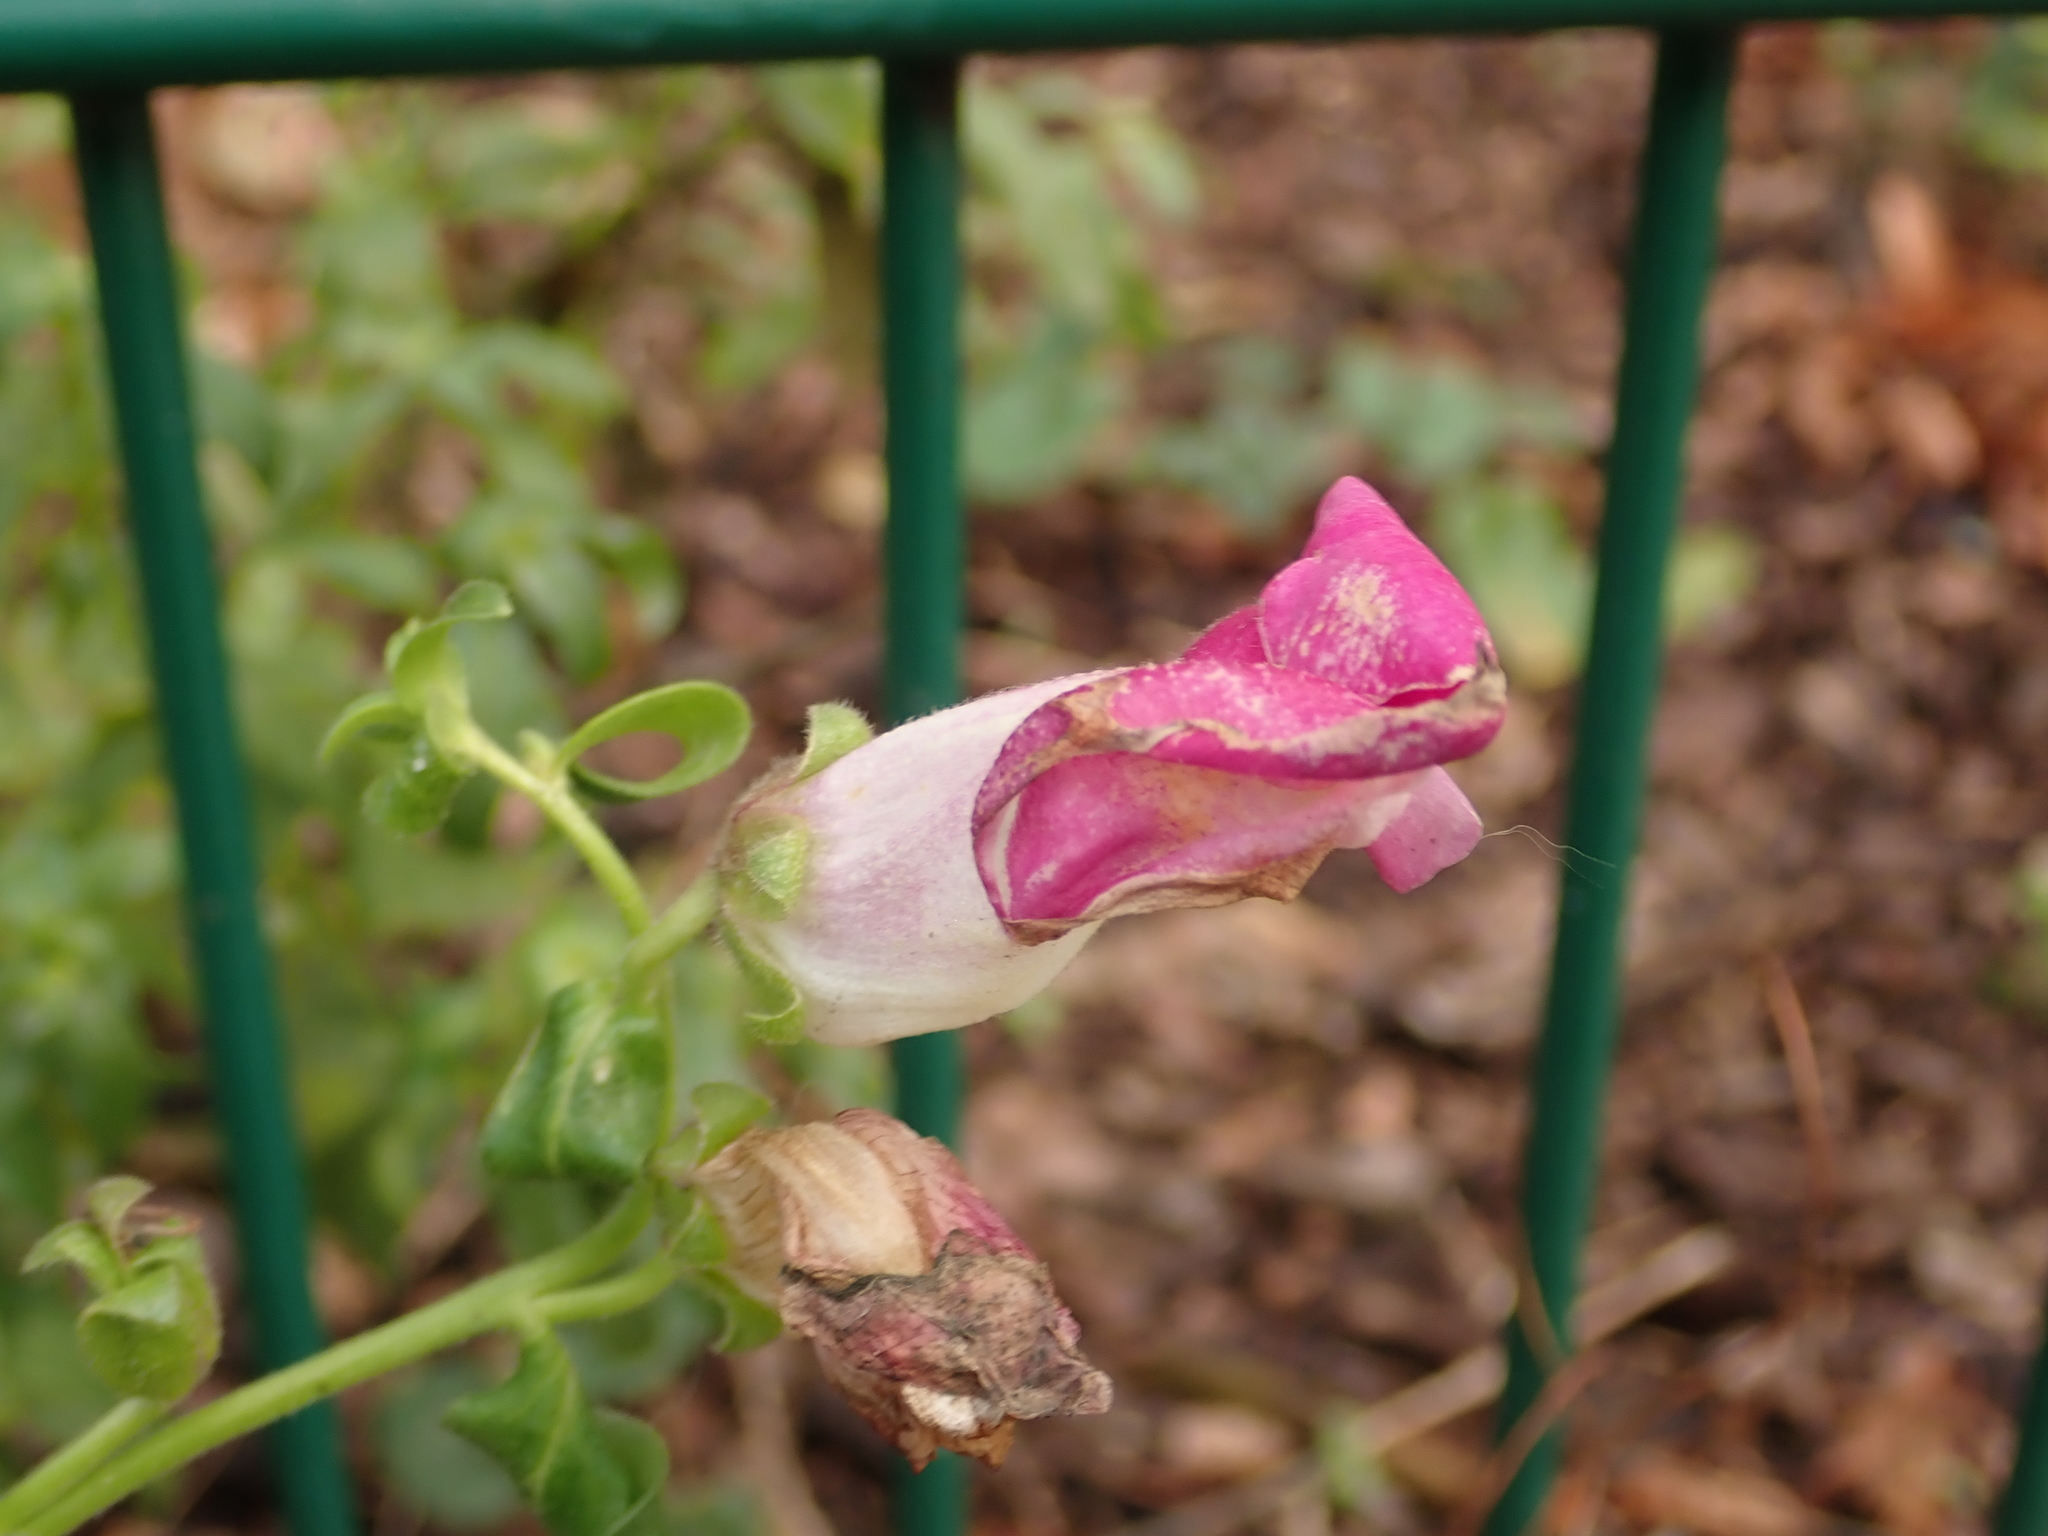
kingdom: Plantae
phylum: Tracheophyta
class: Magnoliopsida
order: Lamiales
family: Plantaginaceae
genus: Antirrhinum
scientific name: Antirrhinum majus
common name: Snapdragon
